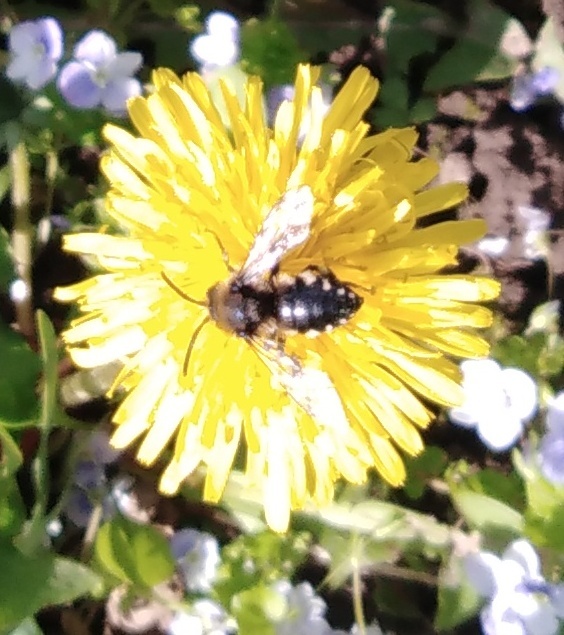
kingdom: Animalia
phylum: Arthropoda
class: Insecta
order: Hymenoptera
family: Apidae
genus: Melecta
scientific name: Melecta albifrons
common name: Common mourning bee
